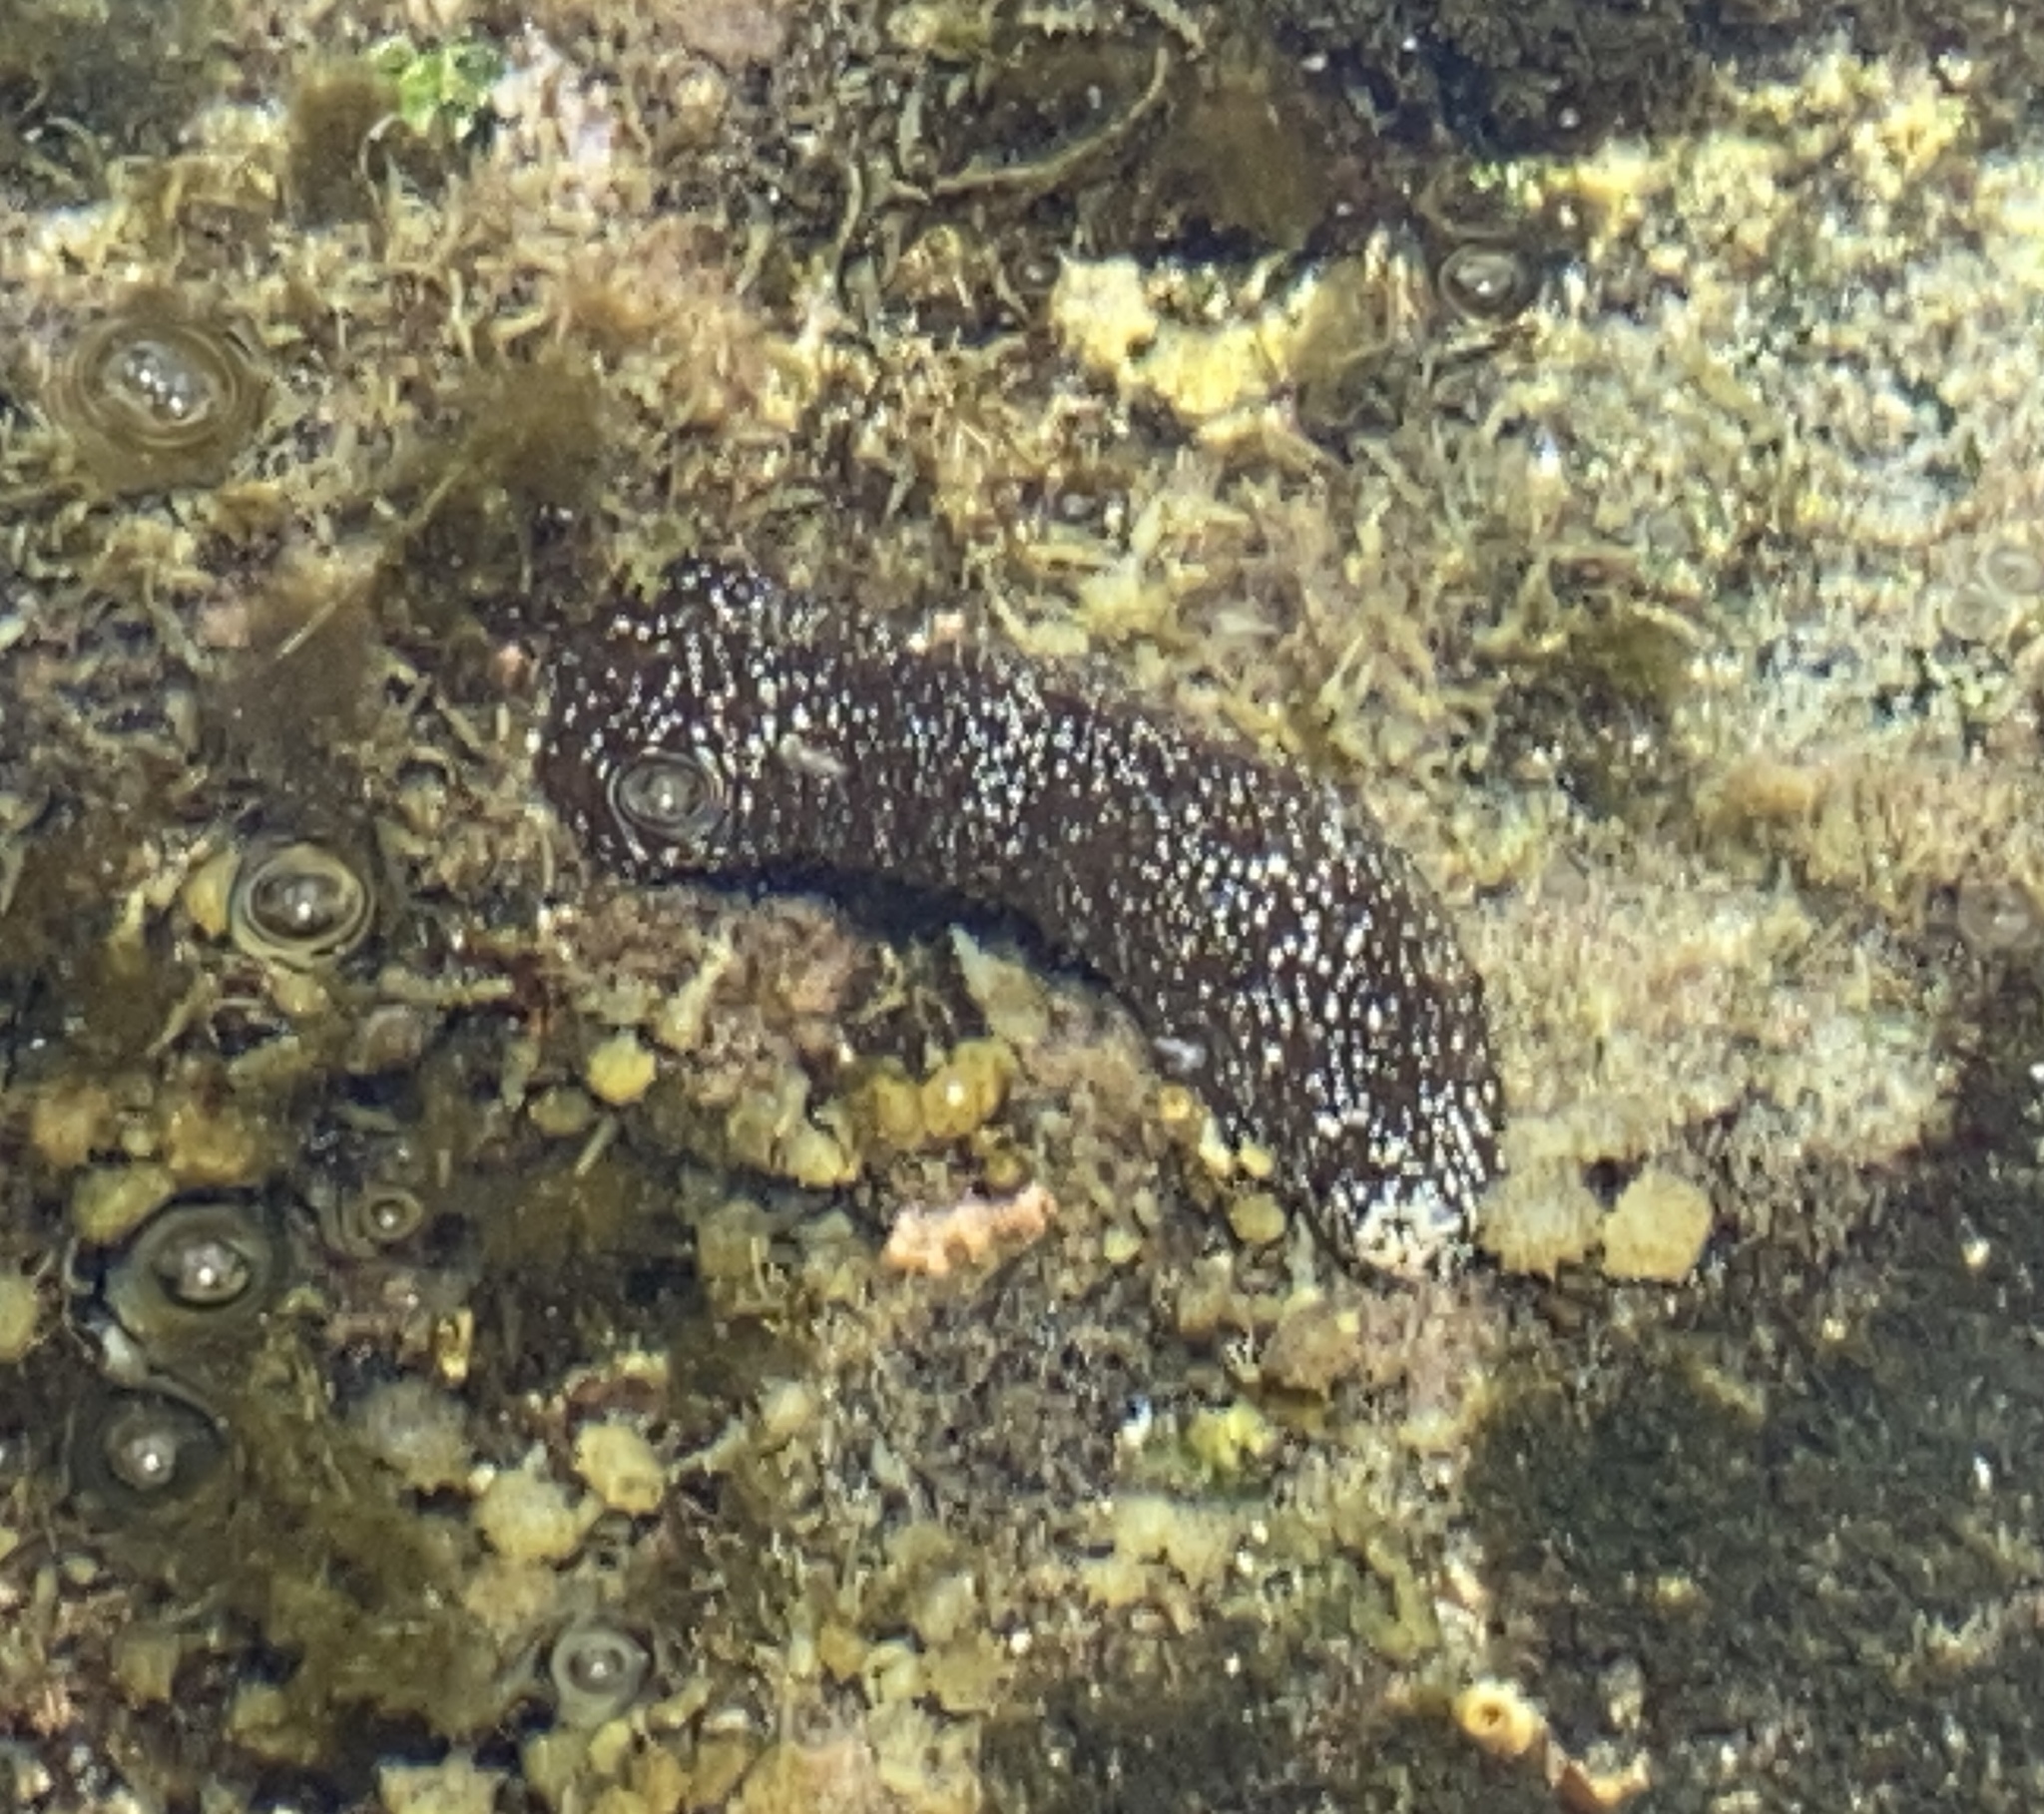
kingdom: Animalia
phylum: Echinodermata
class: Holothuroidea
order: Holothuriida
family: Holothuriidae
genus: Actinopyga
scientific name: Actinopyga varians
